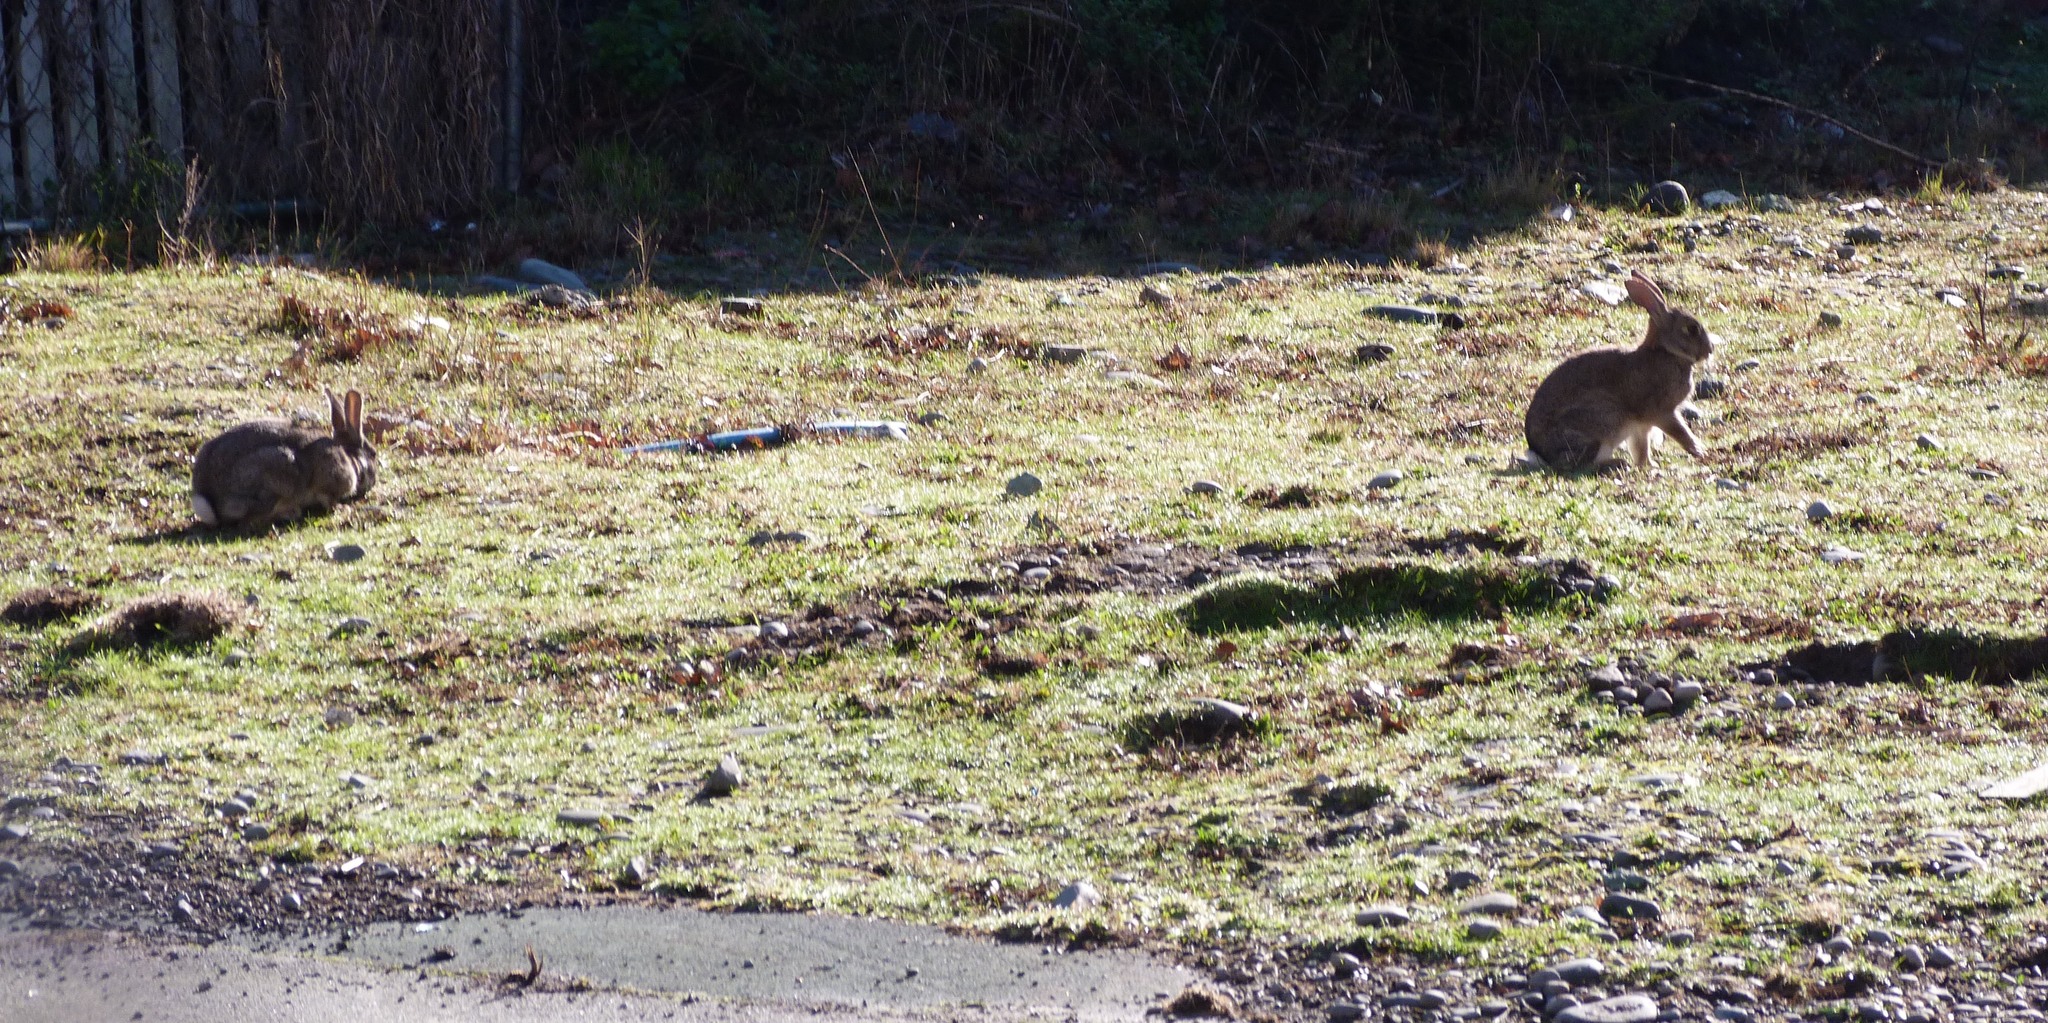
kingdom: Animalia
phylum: Chordata
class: Mammalia
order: Lagomorpha
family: Leporidae
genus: Oryctolagus
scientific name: Oryctolagus cuniculus
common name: European rabbit
